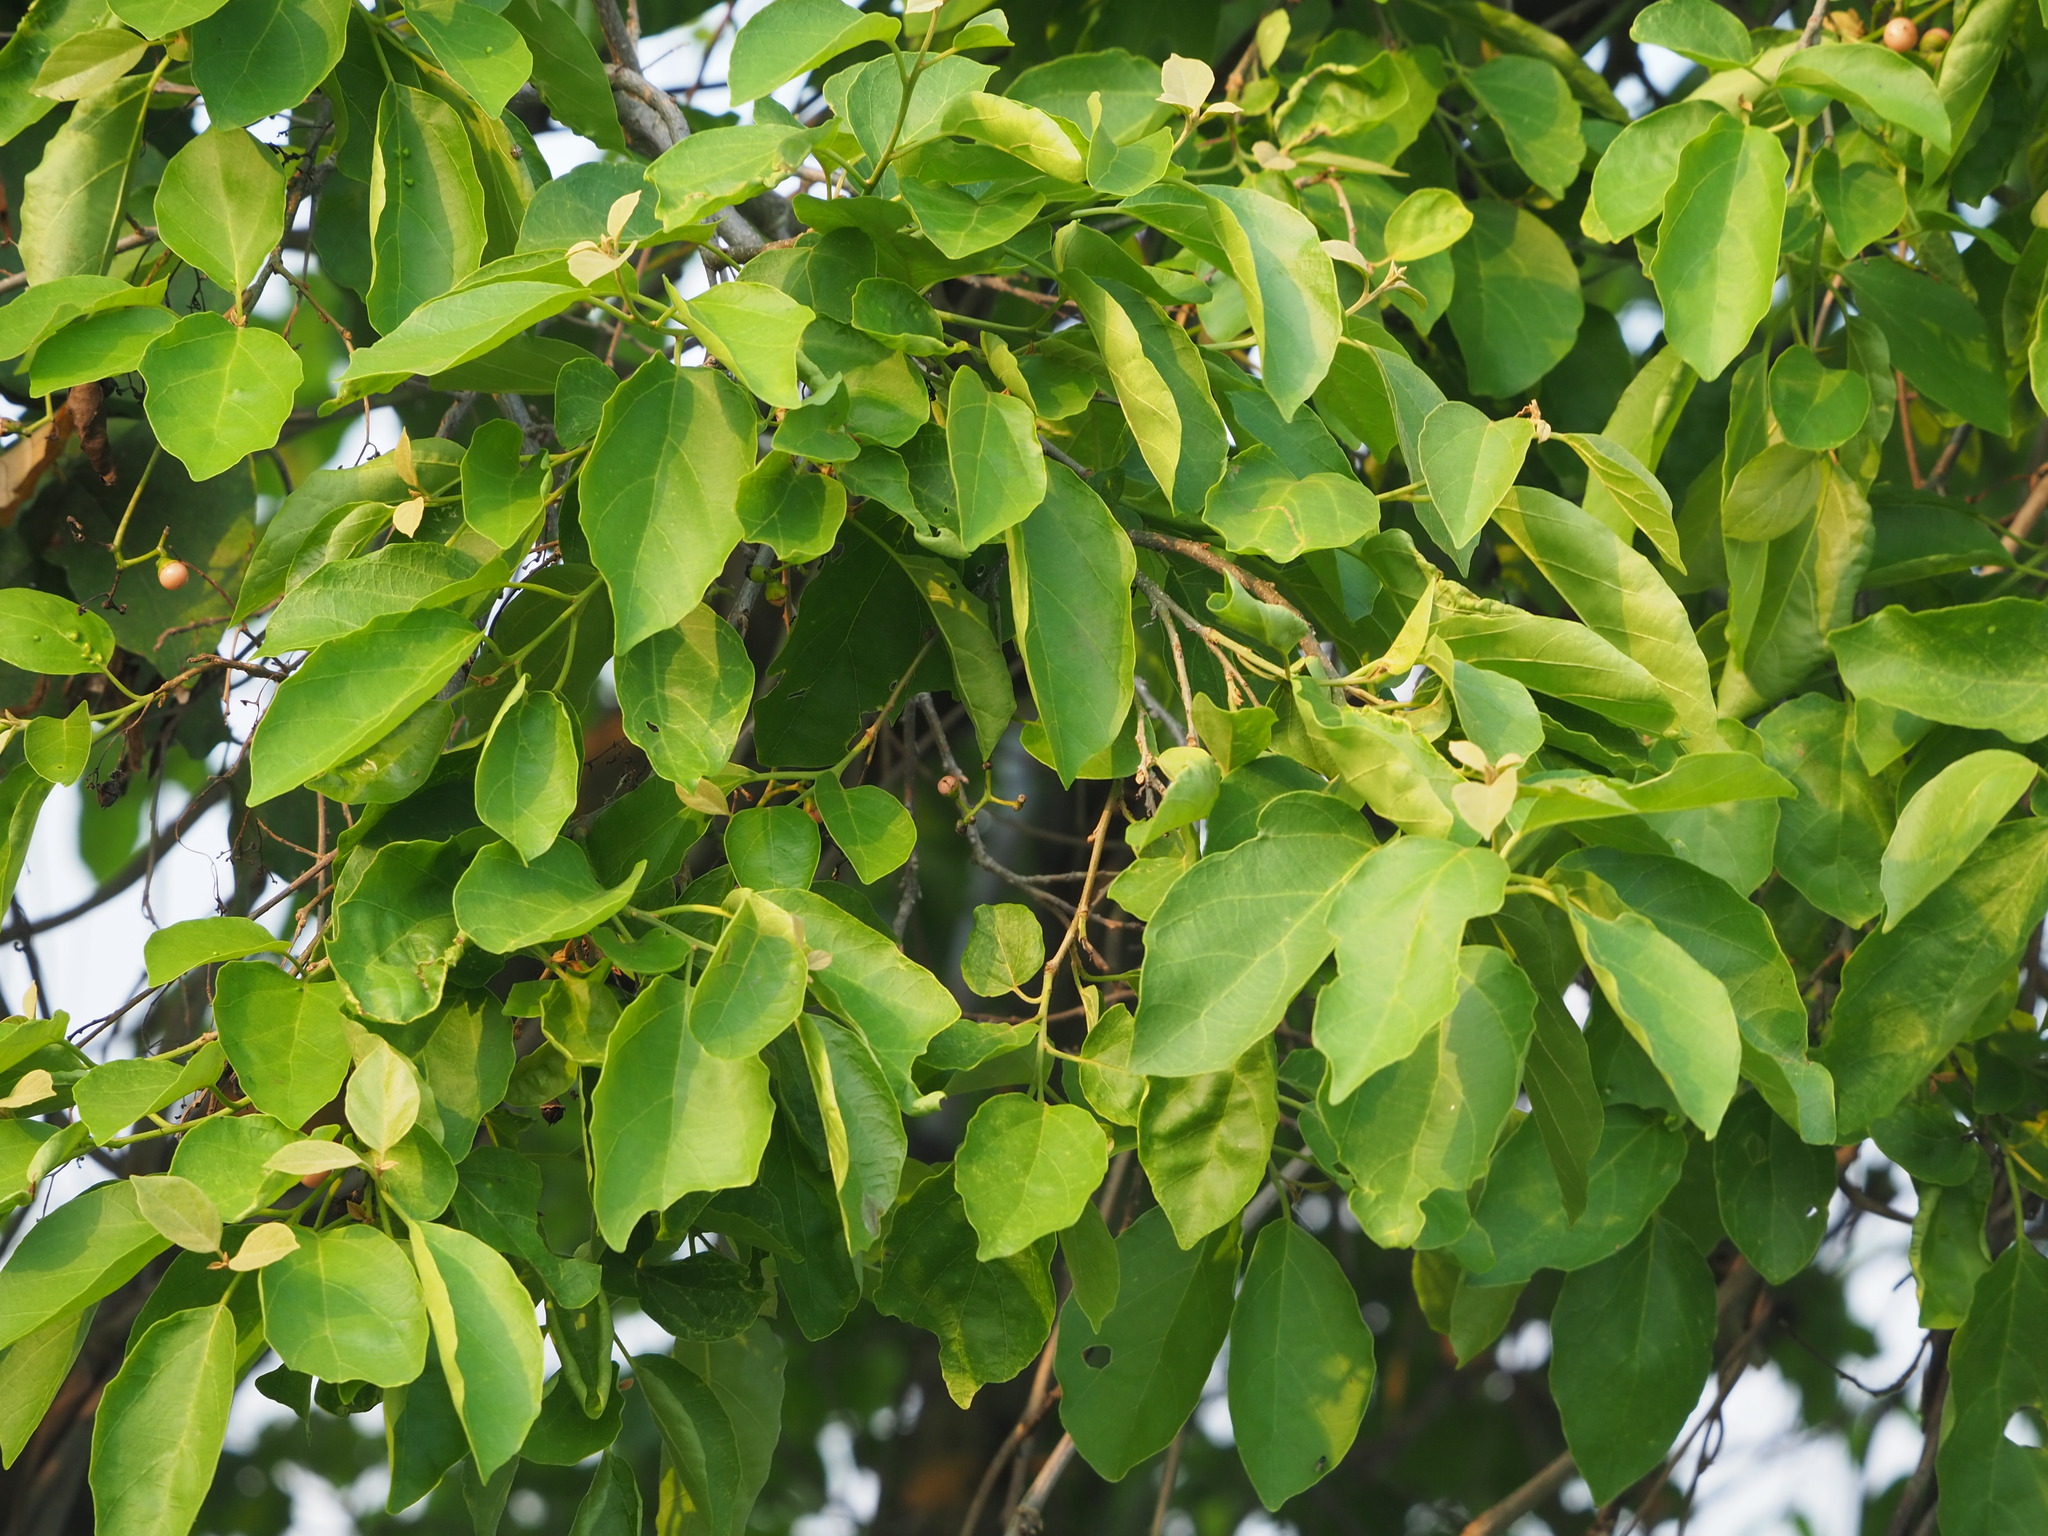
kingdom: Plantae
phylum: Tracheophyta
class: Magnoliopsida
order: Boraginales
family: Cordiaceae
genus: Cordia
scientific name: Cordia dichotoma
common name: Fragrant manjack
